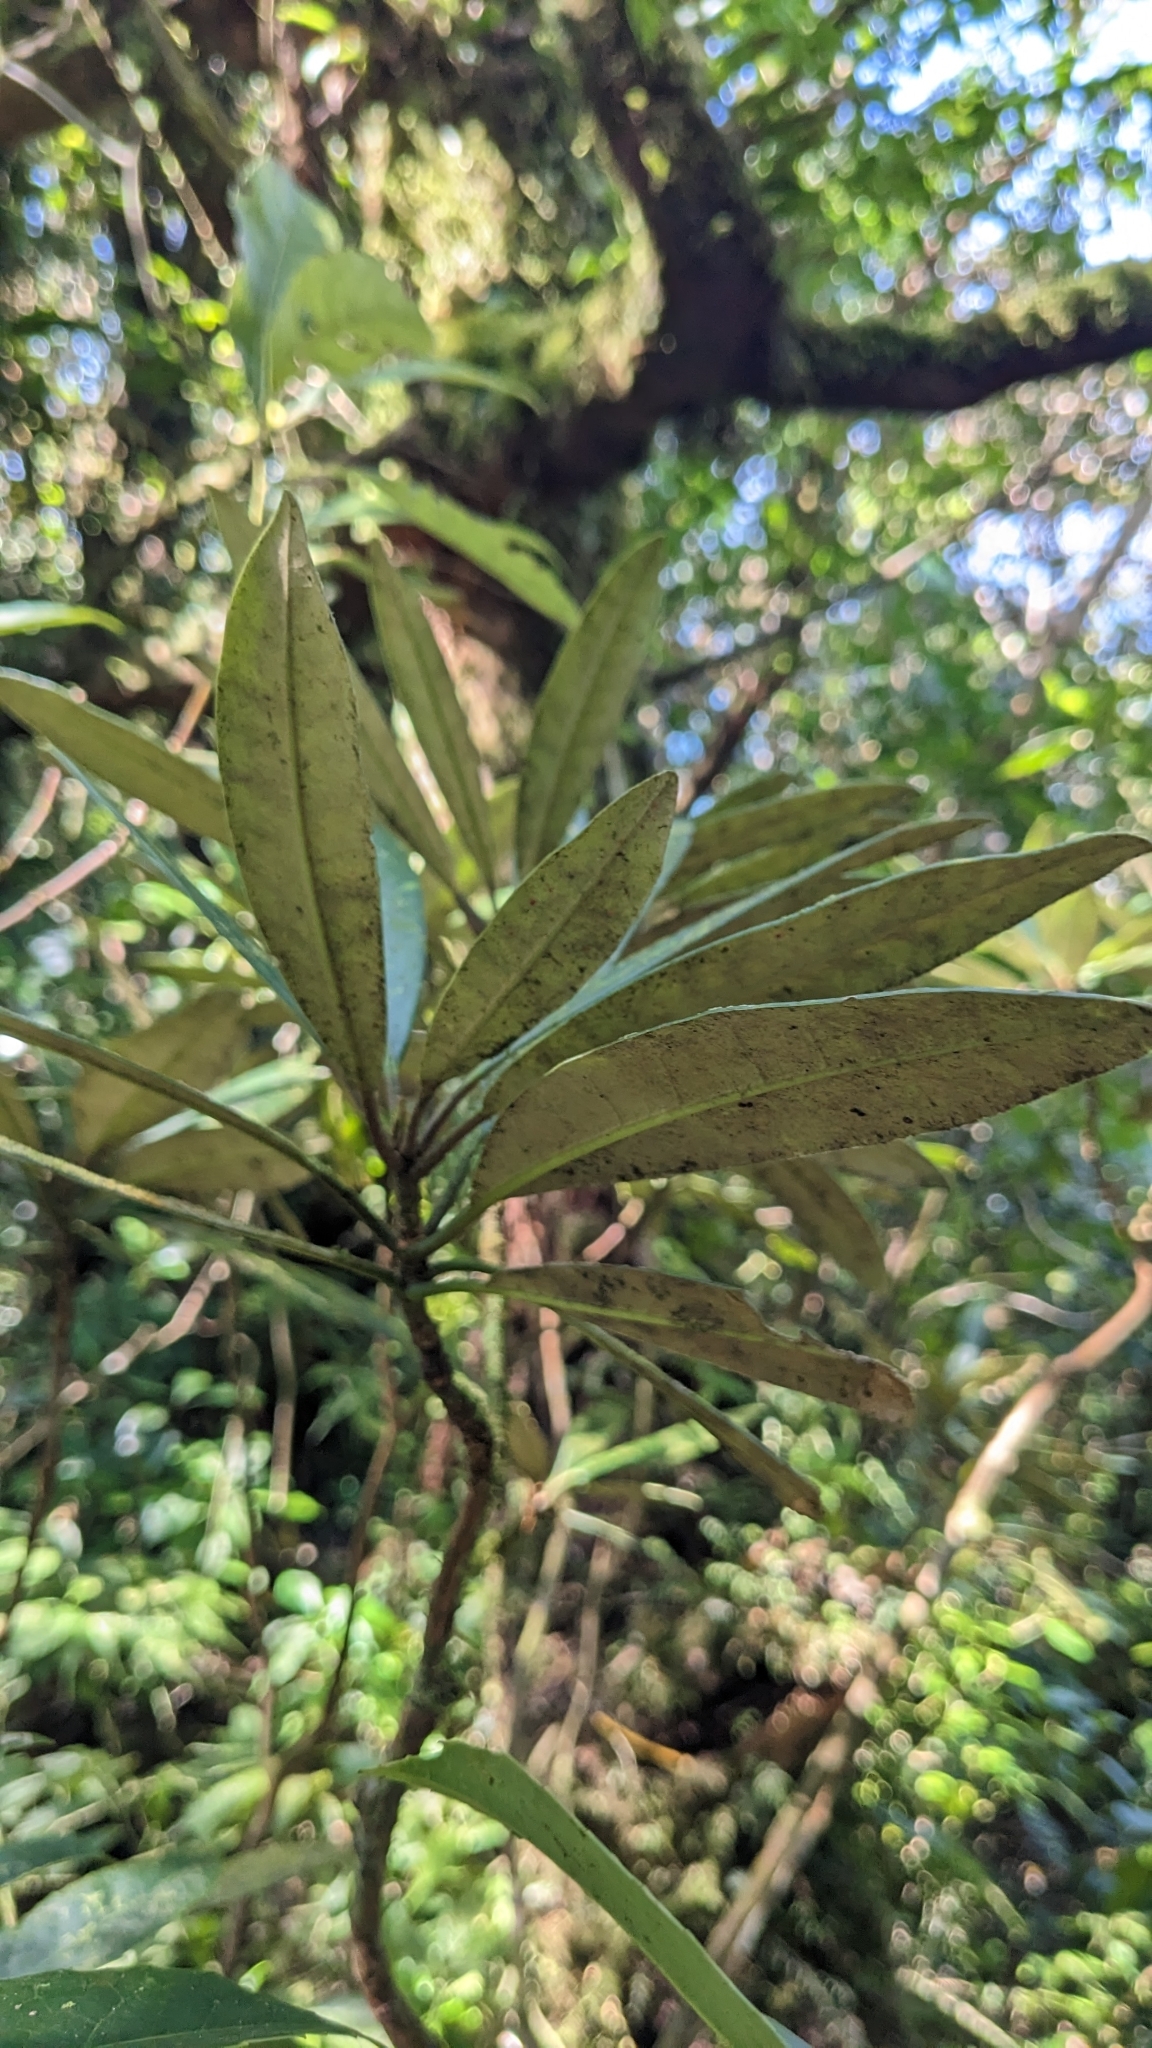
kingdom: Plantae
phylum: Tracheophyta
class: Magnoliopsida
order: Ericales
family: Ericaceae
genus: Rhododendron
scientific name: Rhododendron formosanum
